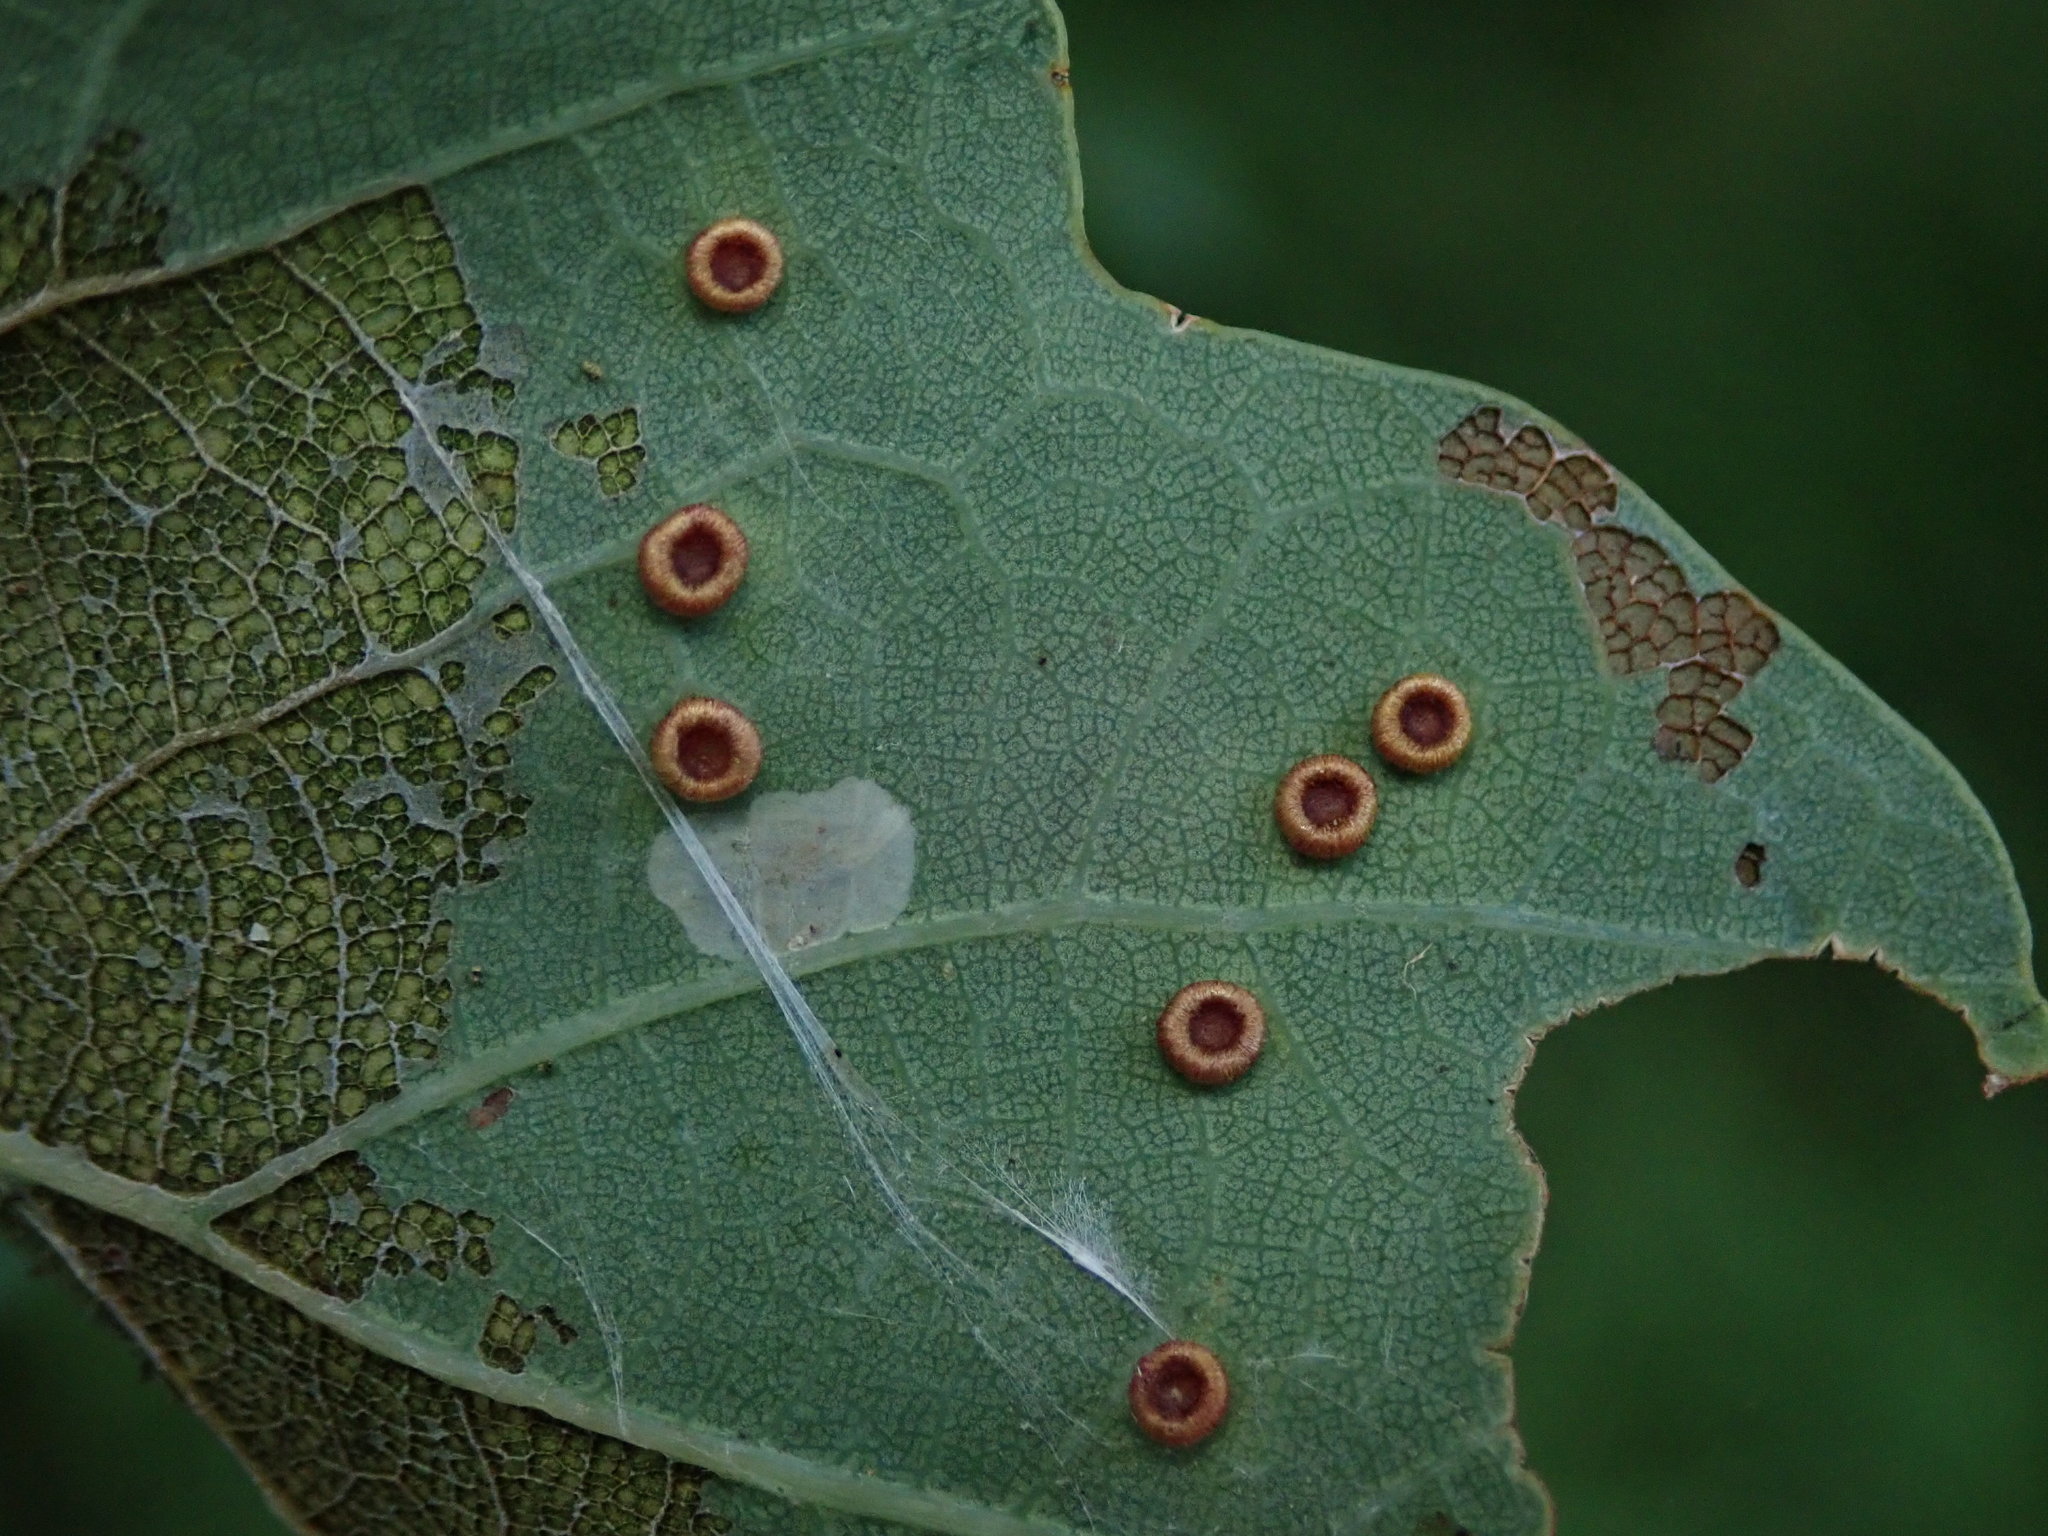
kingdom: Animalia
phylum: Arthropoda
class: Insecta
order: Hymenoptera
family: Cynipidae
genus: Neuroterus
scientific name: Neuroterus numismalis
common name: Silk-button spangle gall
